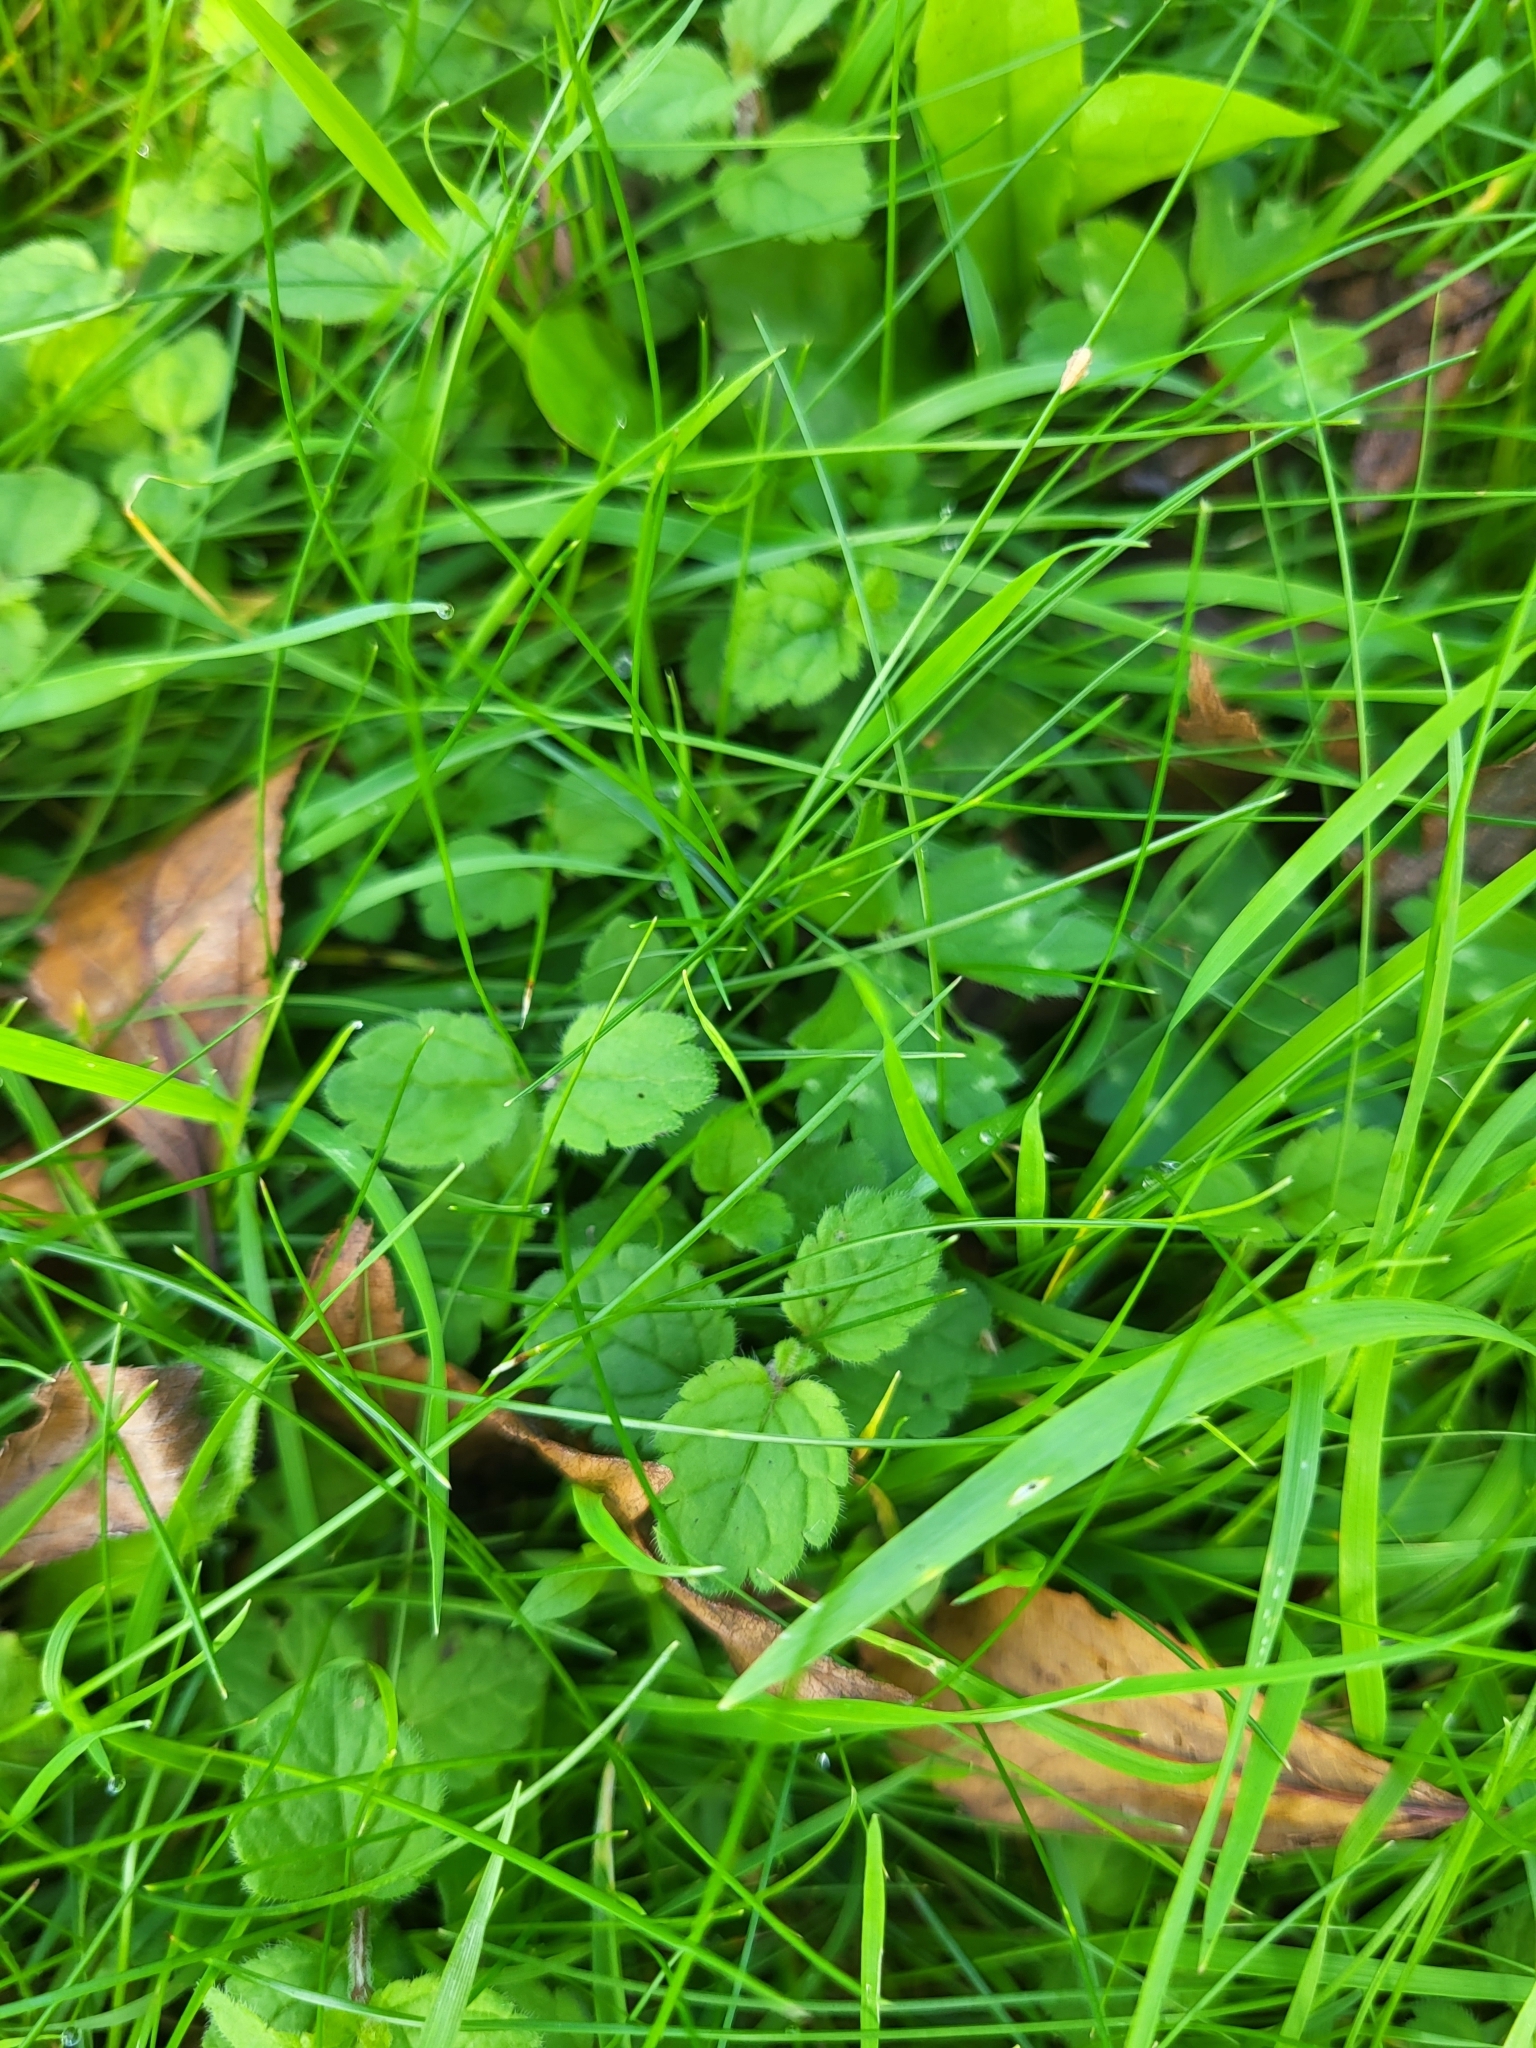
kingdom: Plantae
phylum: Tracheophyta
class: Magnoliopsida
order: Lamiales
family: Plantaginaceae
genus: Veronica
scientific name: Veronica chamaedrys
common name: Germander speedwell
